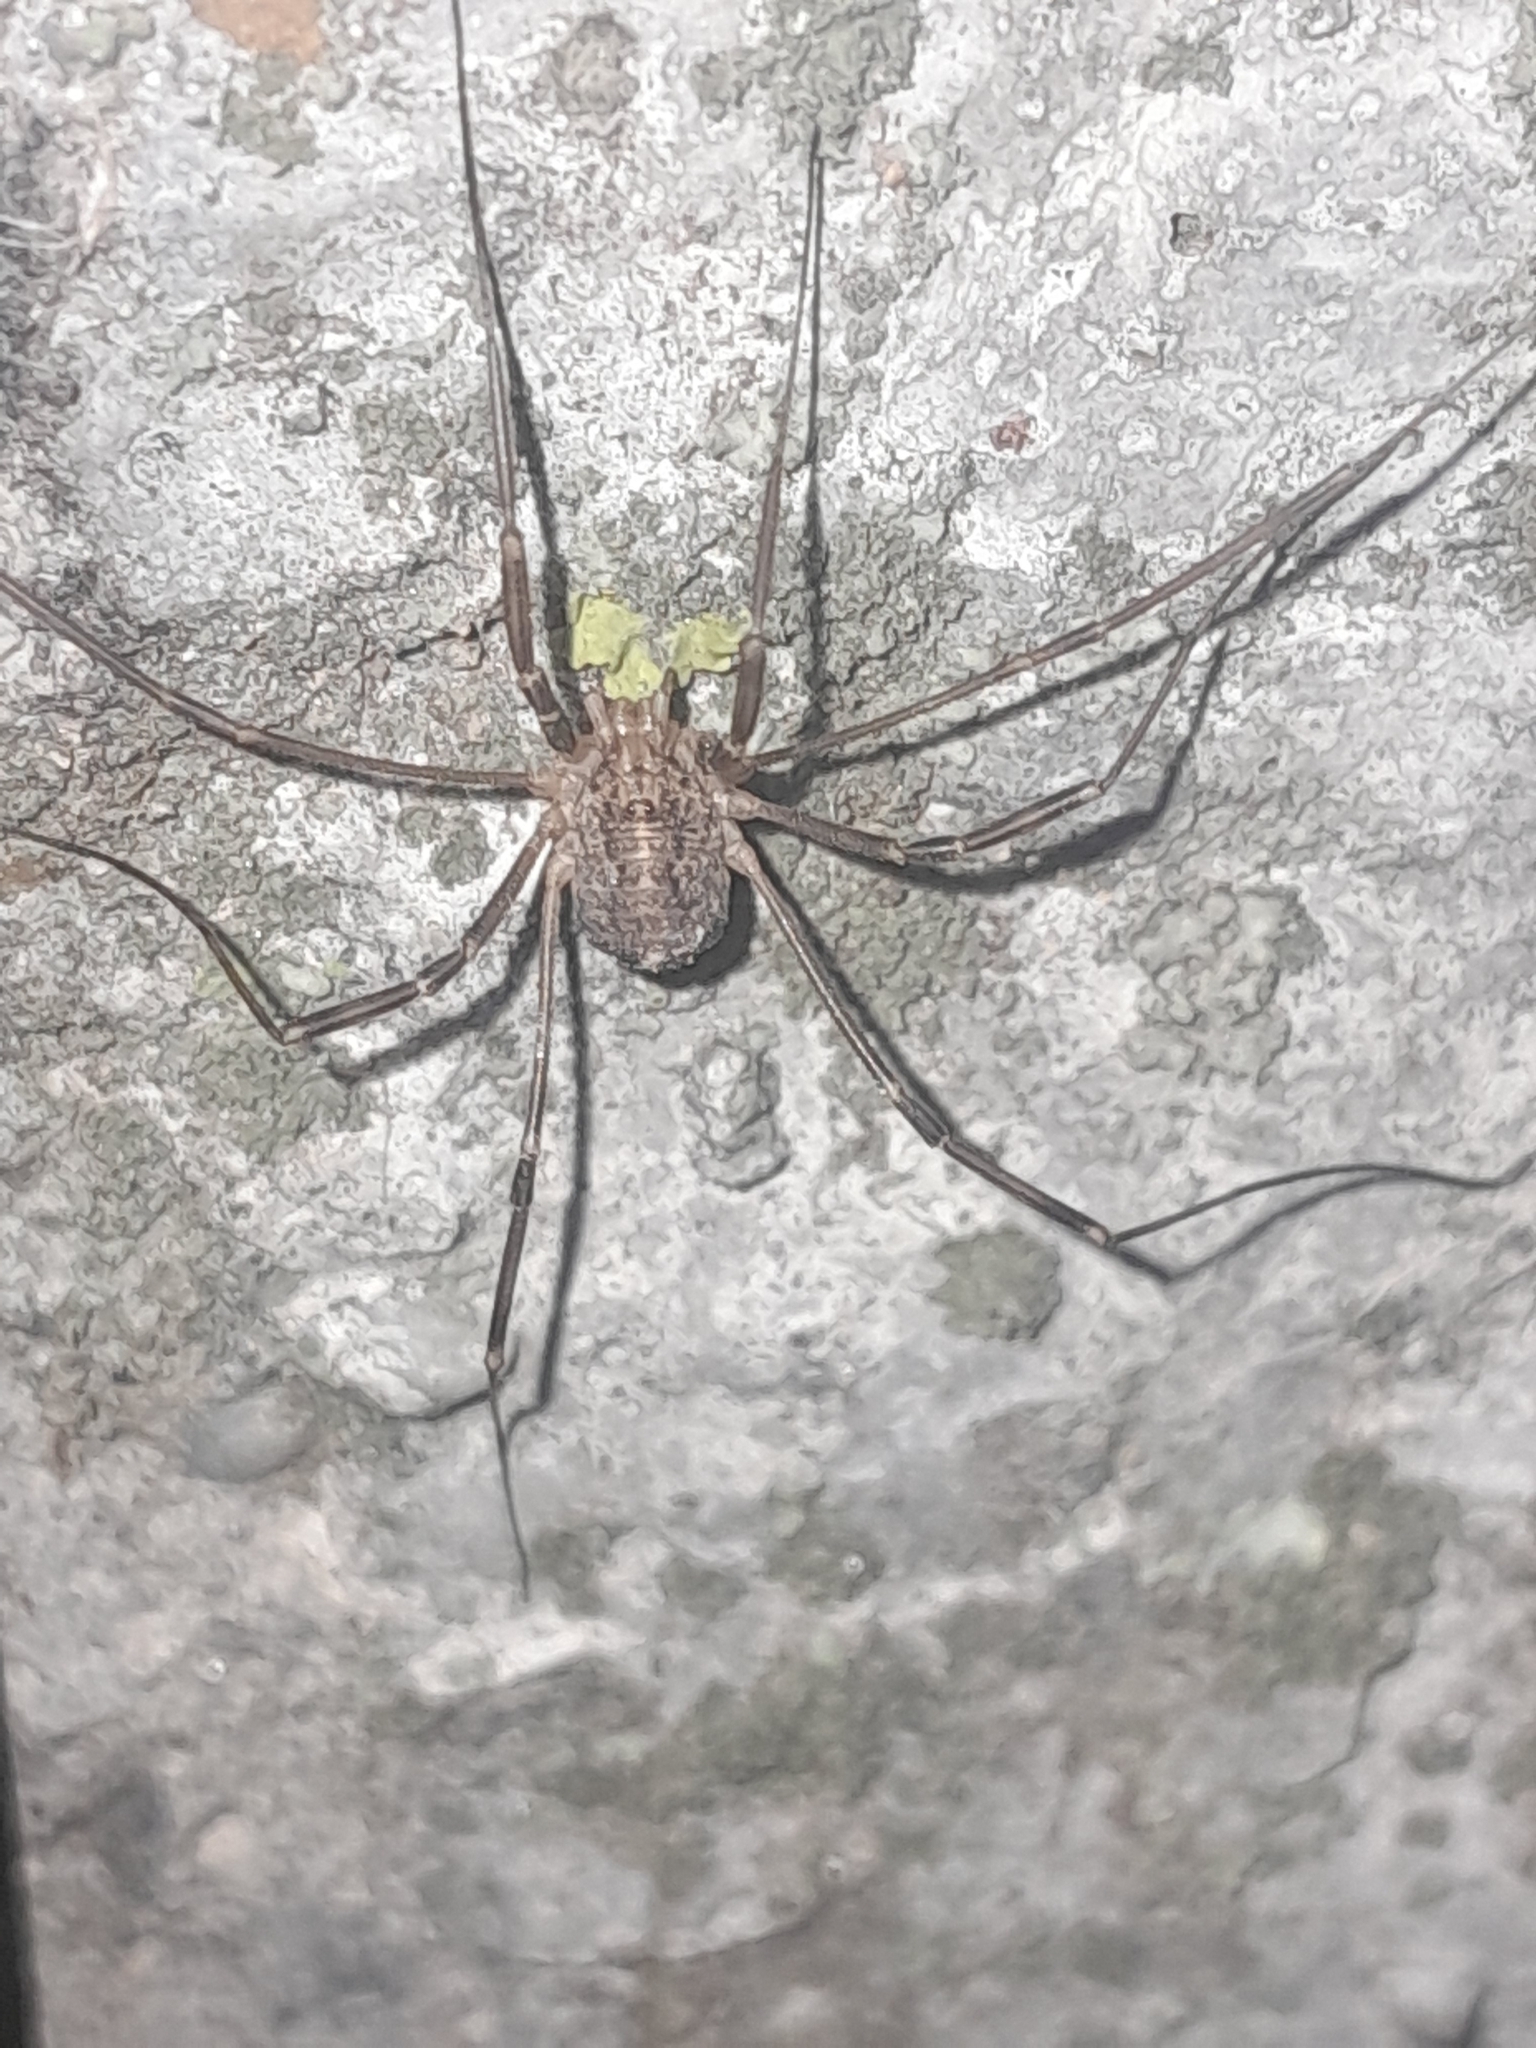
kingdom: Animalia
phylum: Arthropoda
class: Arachnida
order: Opiliones
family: Phalangiidae
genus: Opilio
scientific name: Opilio saxatilis
